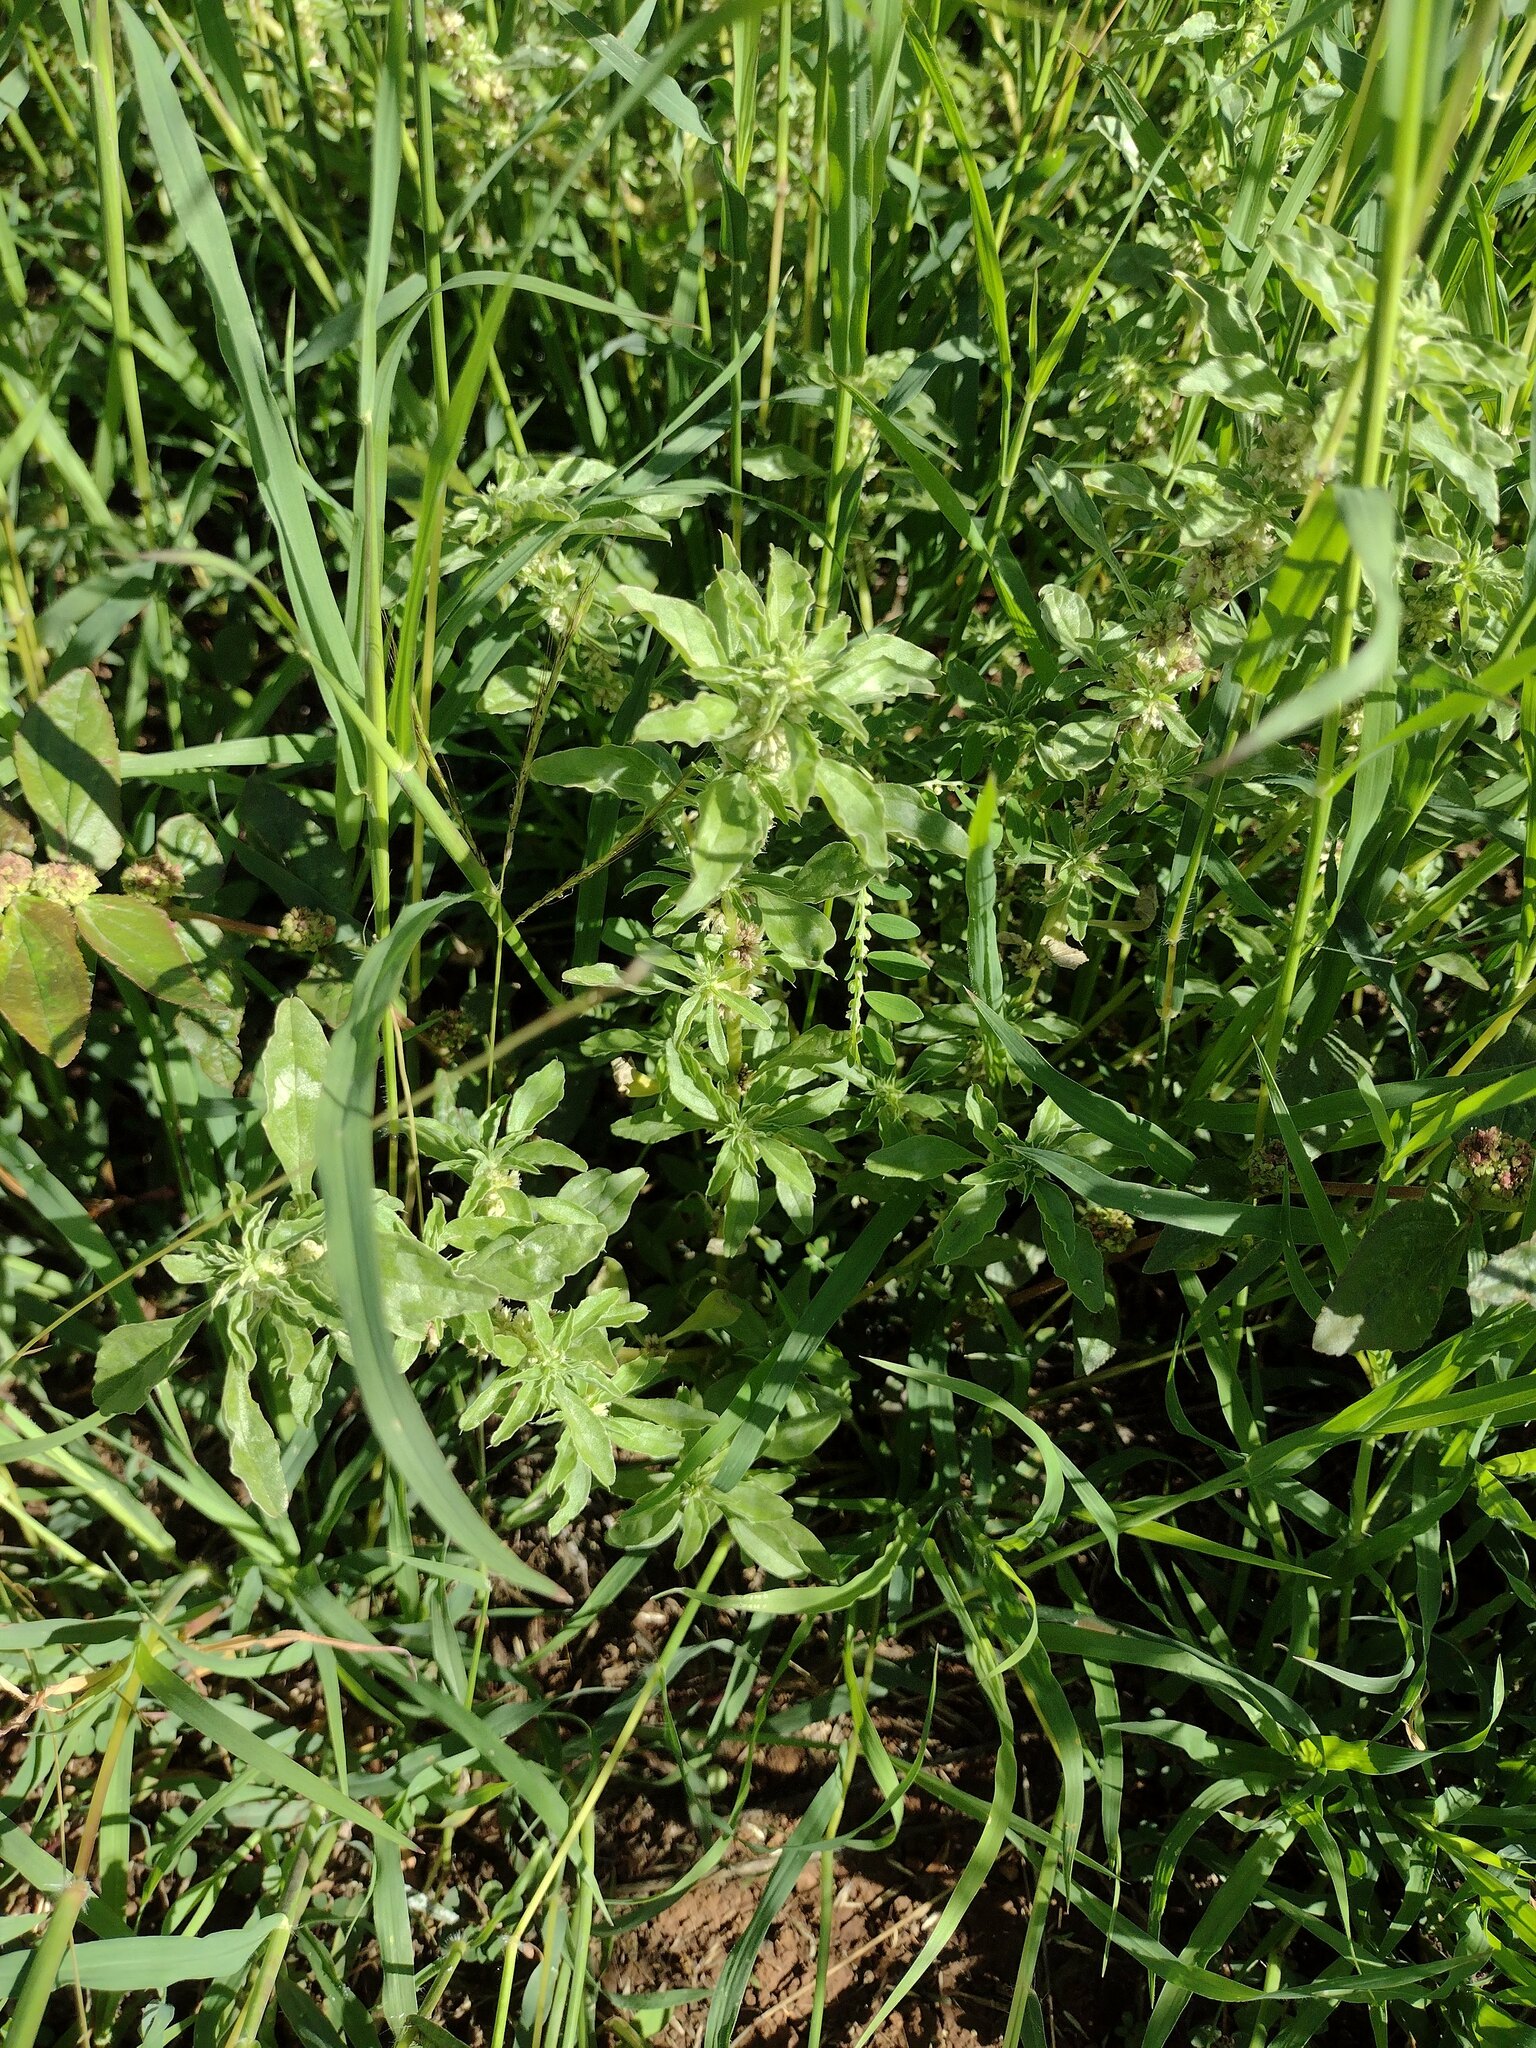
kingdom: Plantae
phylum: Tracheophyta
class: Magnoliopsida
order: Caryophyllales
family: Amaranthaceae
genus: Amaranthus
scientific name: Amaranthus polygonoides
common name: Tropical amaranth
